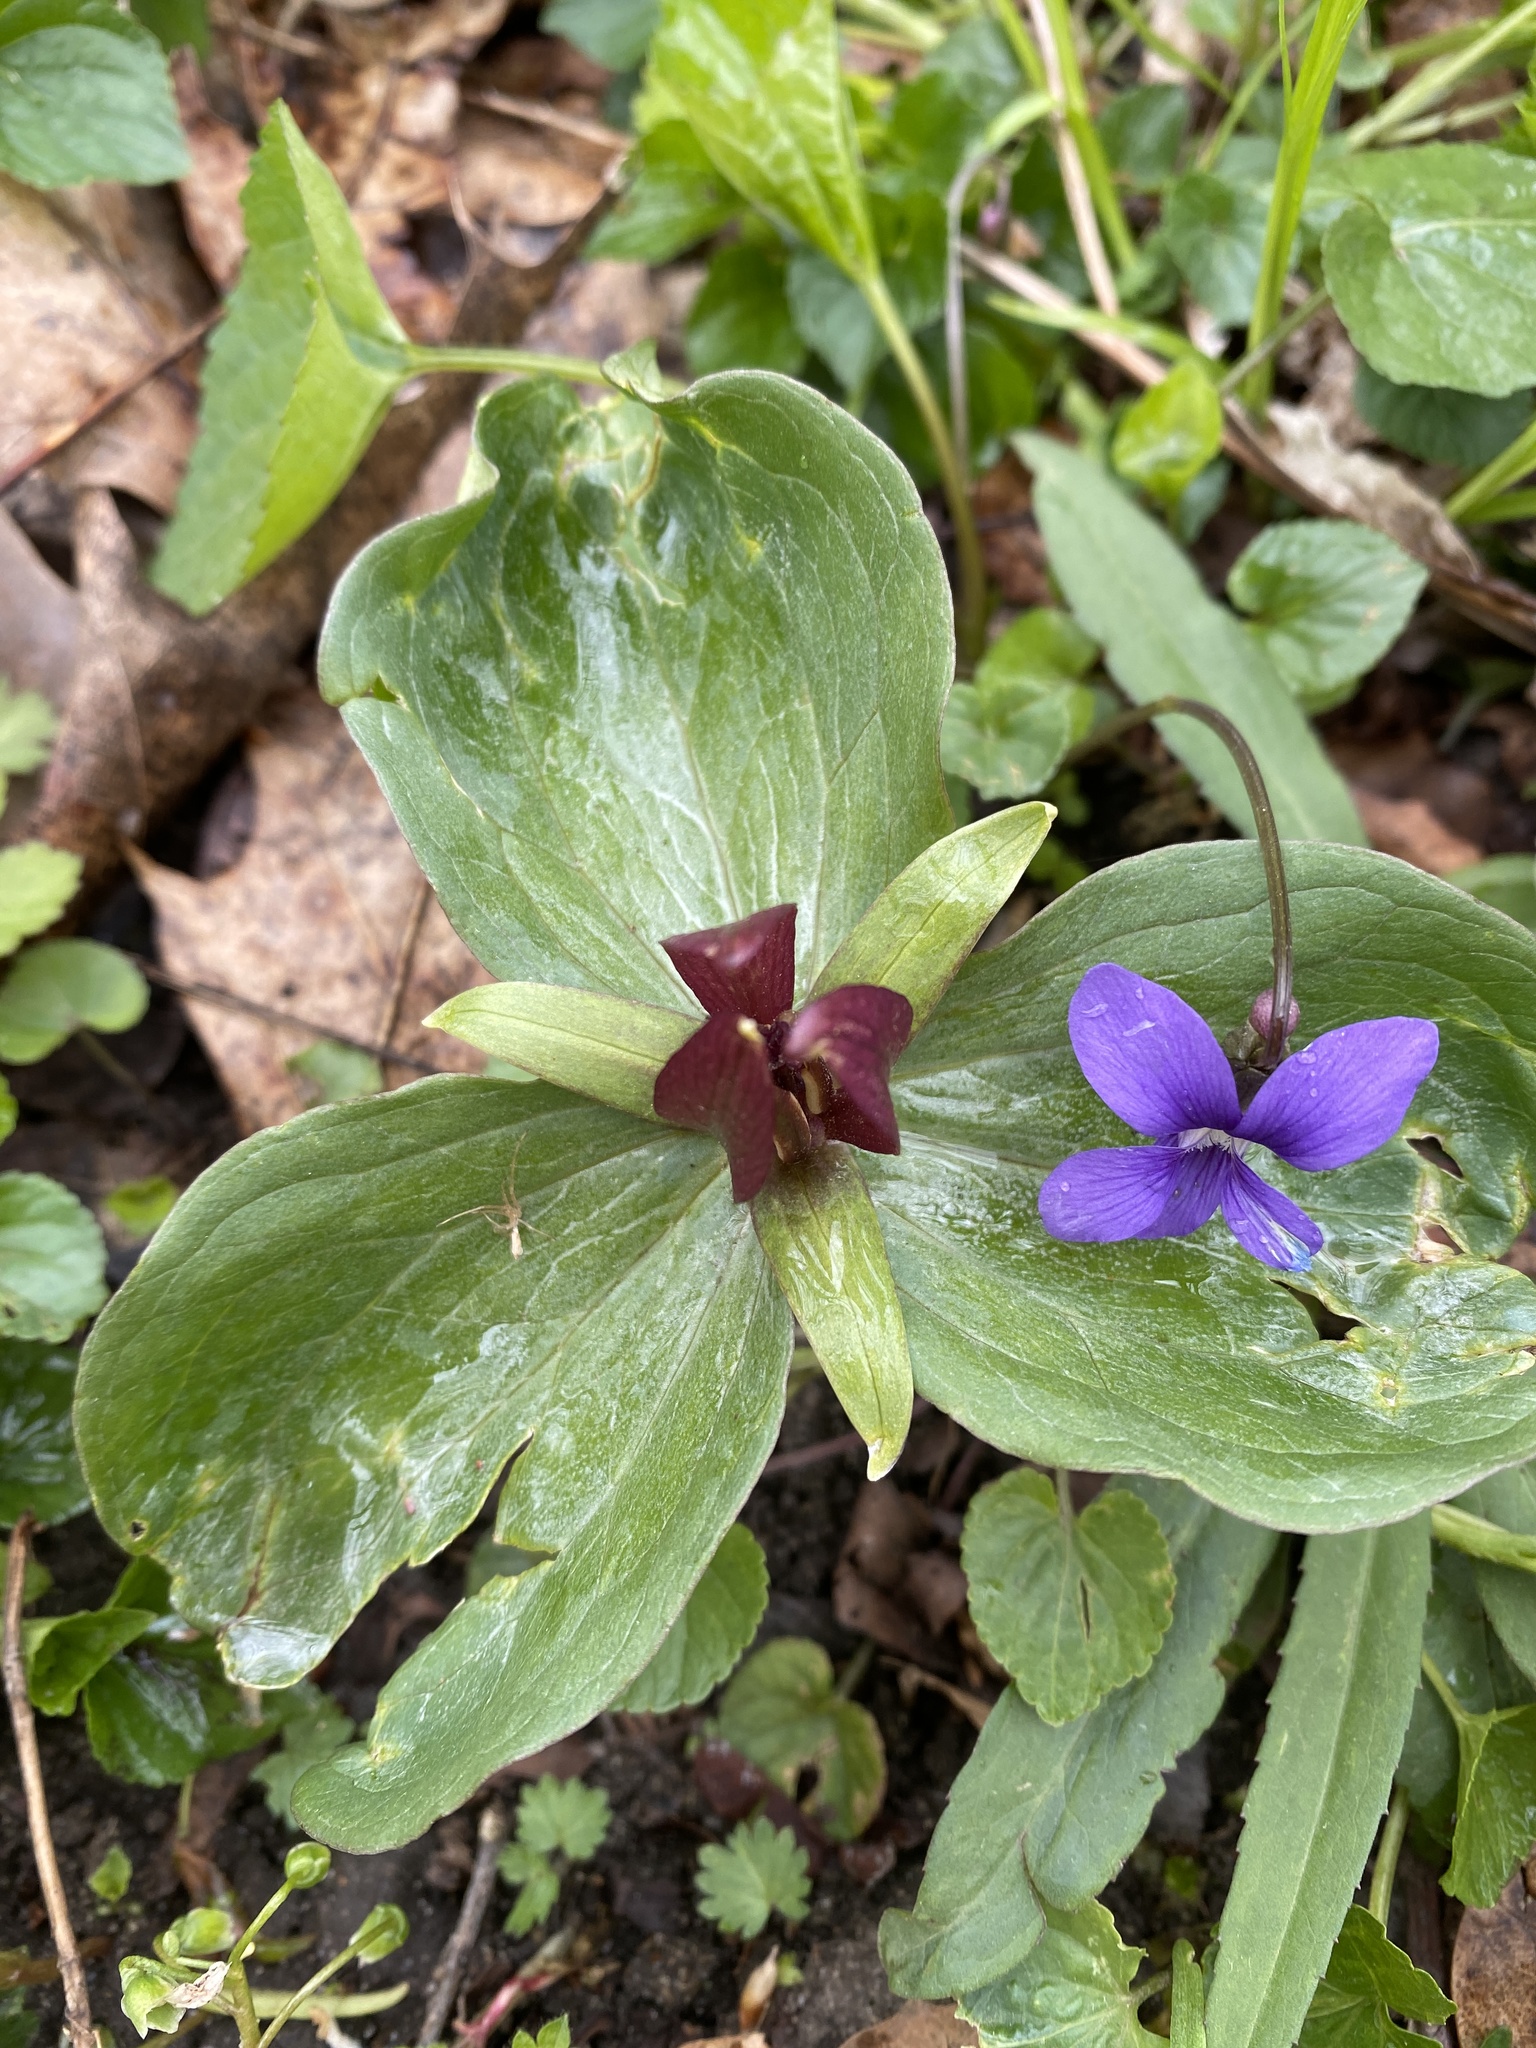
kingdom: Plantae
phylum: Tracheophyta
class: Liliopsida
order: Liliales
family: Melanthiaceae
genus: Trillium
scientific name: Trillium sessile
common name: Sessile trillium
